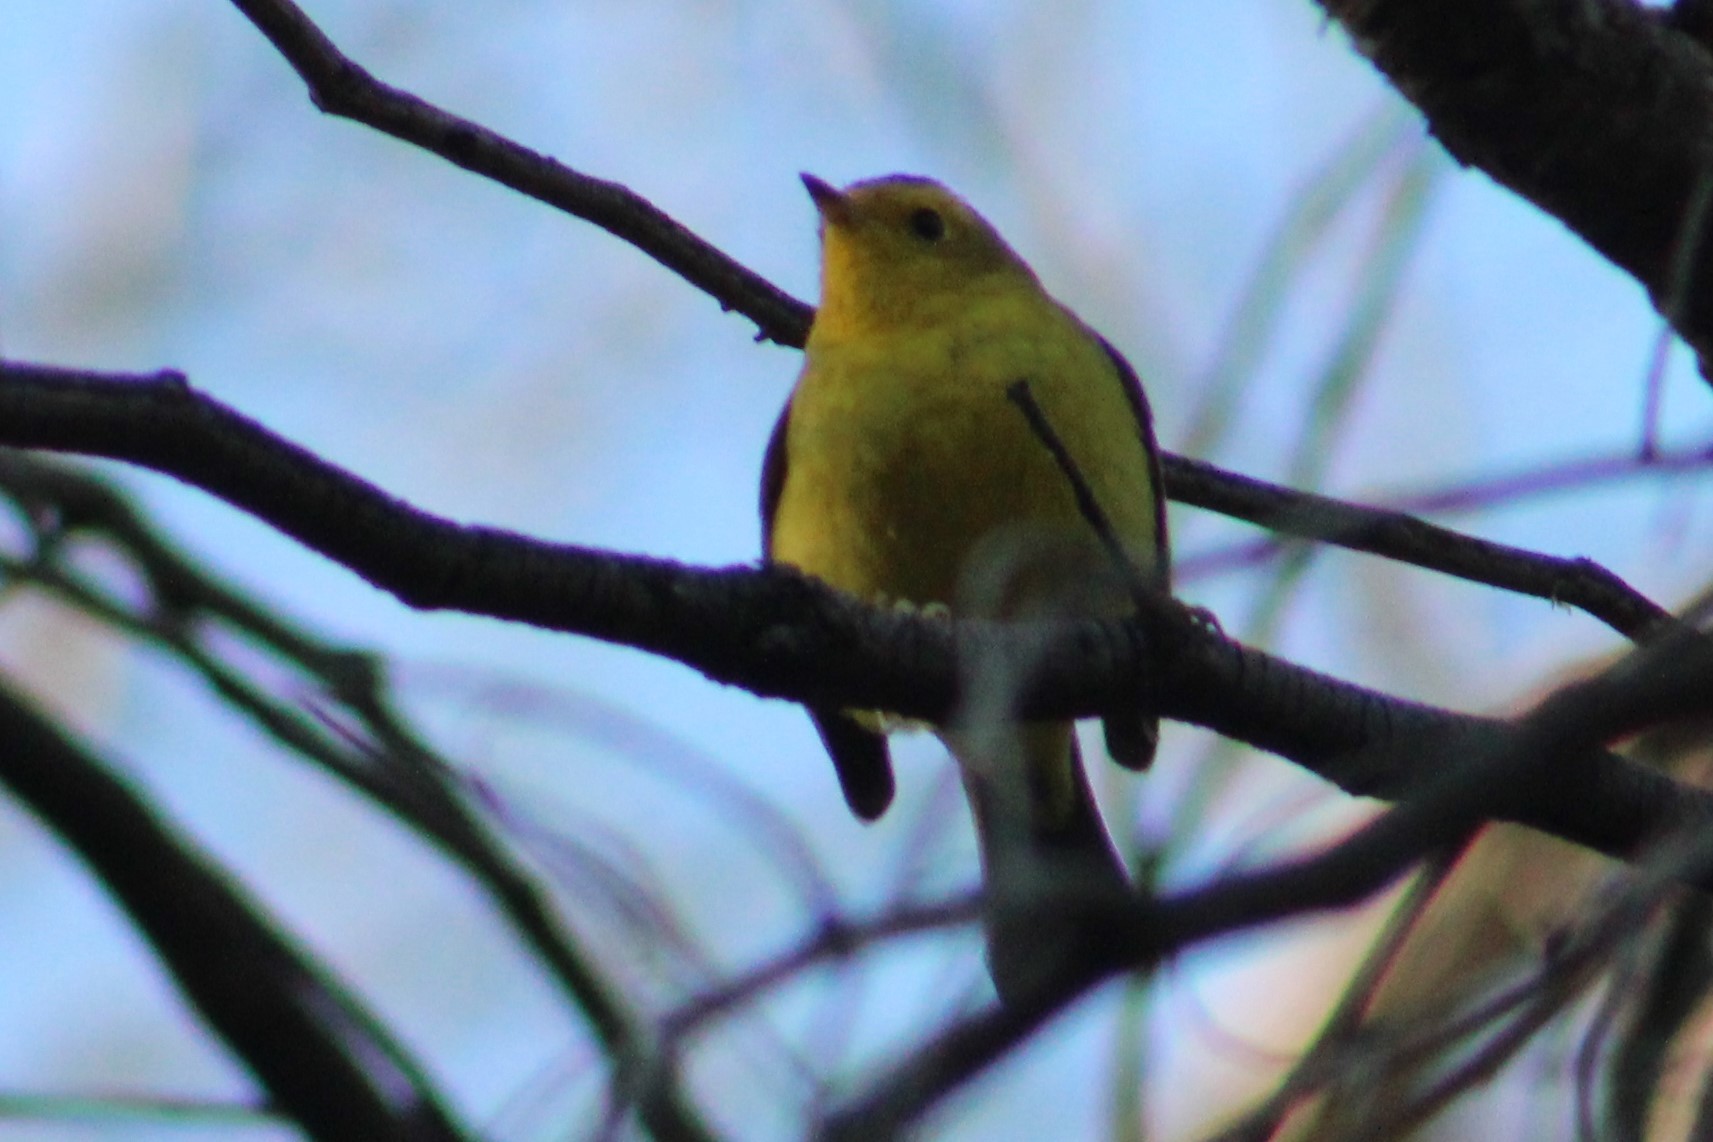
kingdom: Animalia
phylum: Chordata
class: Aves
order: Passeriformes
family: Parulidae
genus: Cardellina
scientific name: Cardellina pusilla
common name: Wilson's warbler
